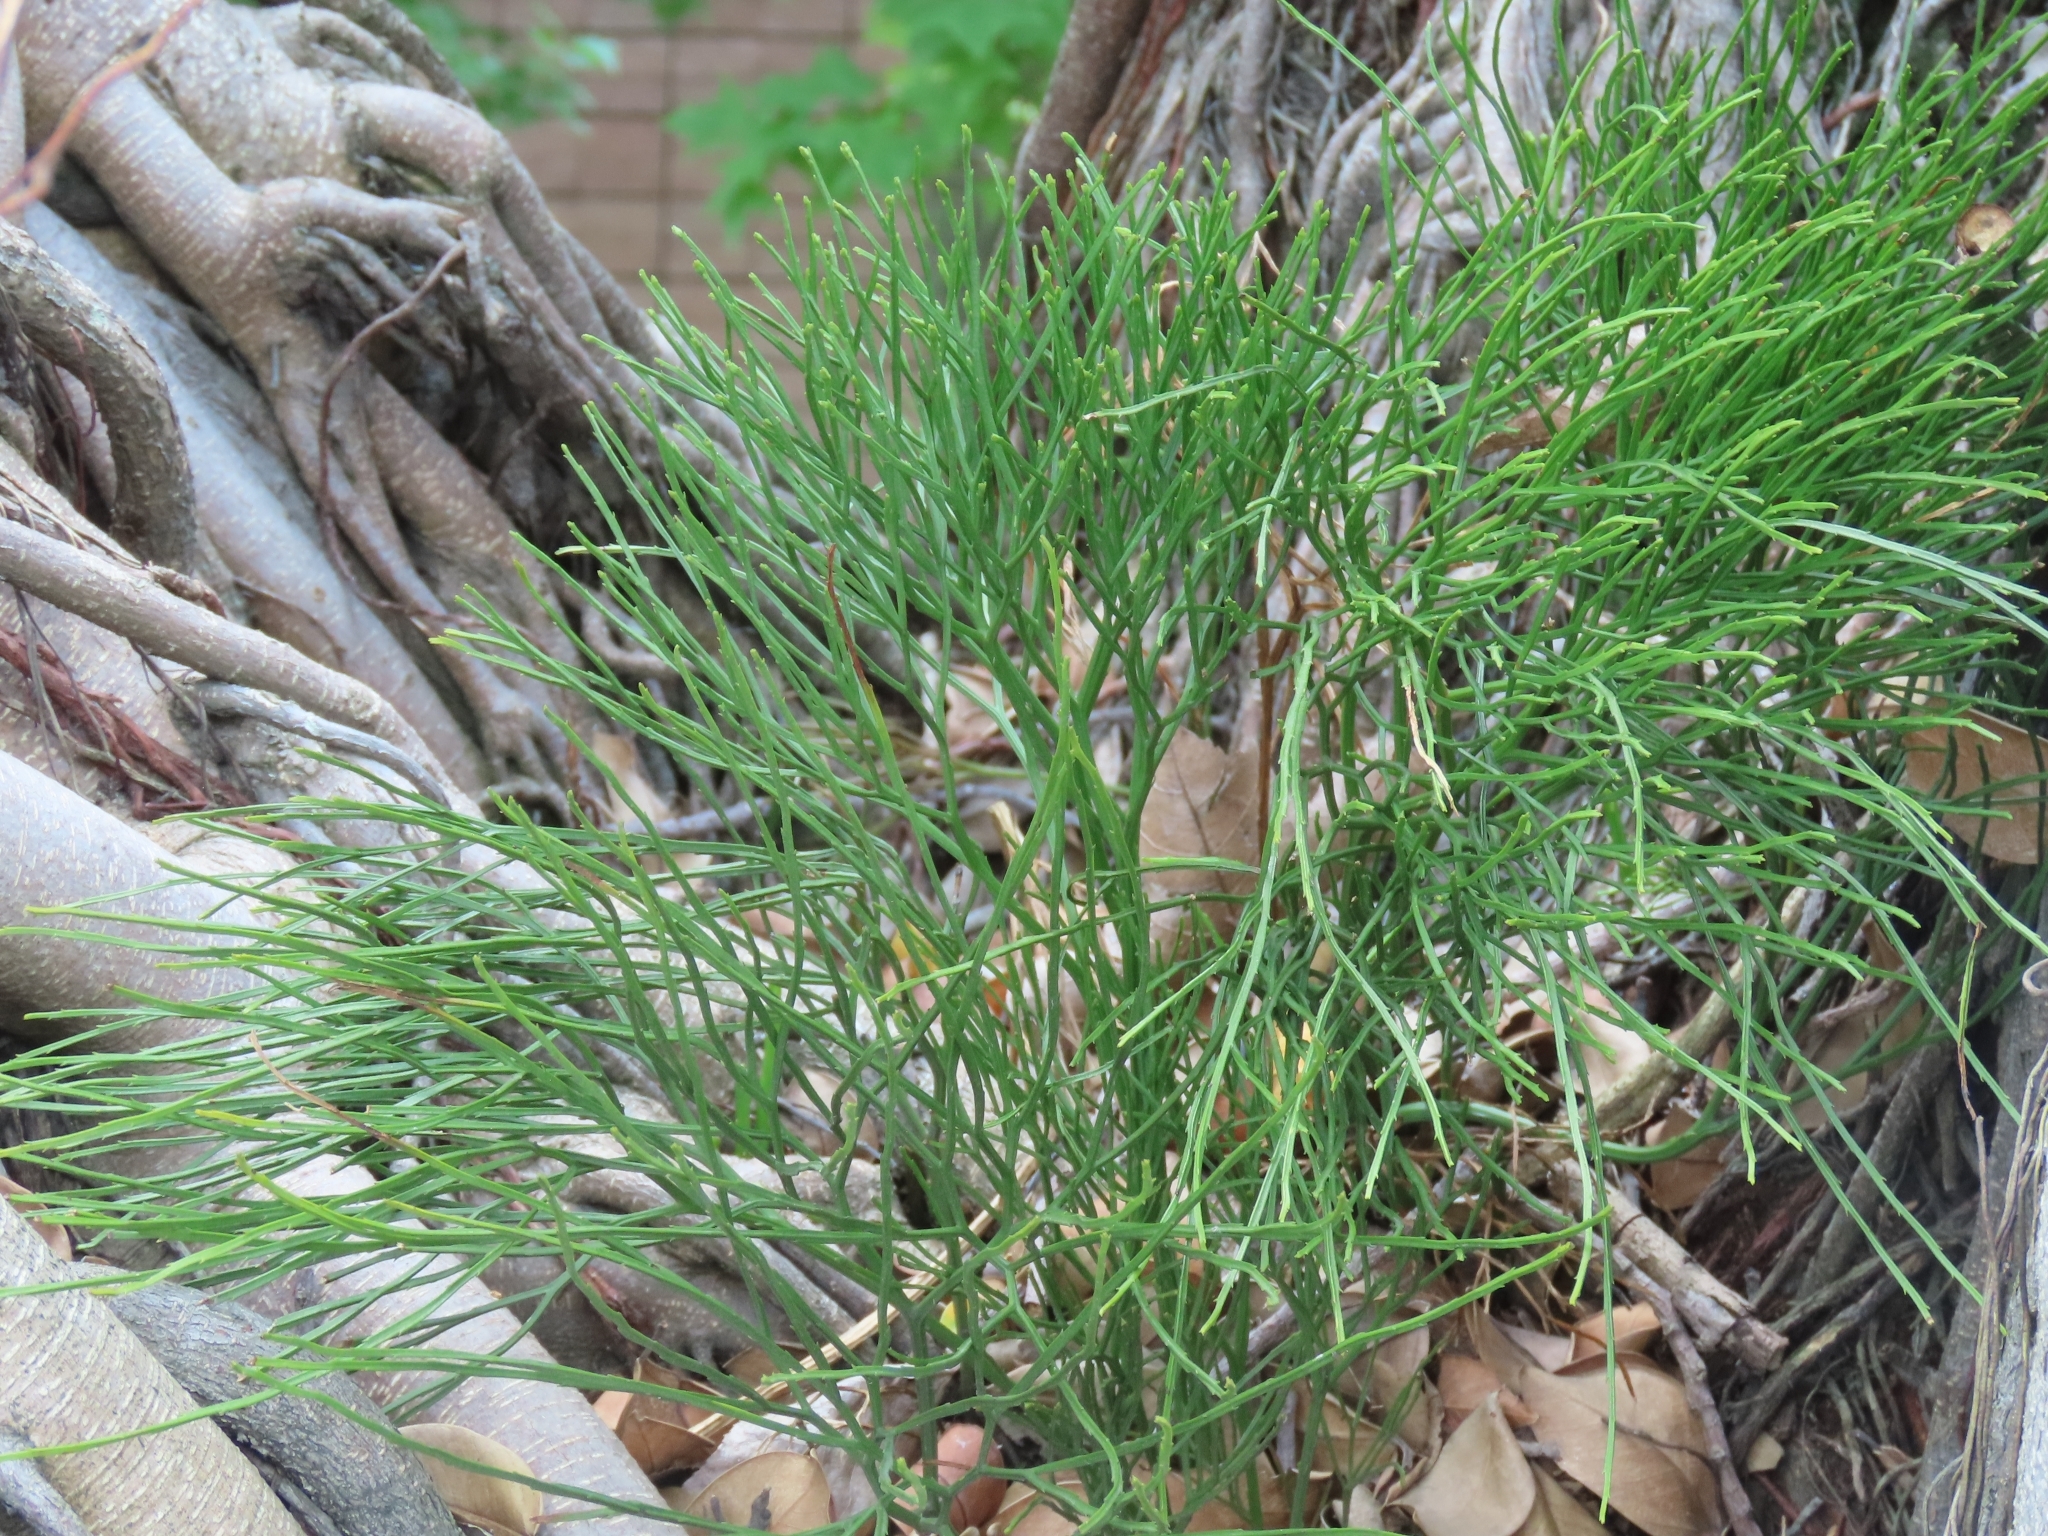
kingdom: Plantae
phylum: Tracheophyta
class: Polypodiopsida
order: Psilotales
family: Psilotaceae
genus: Psilotum
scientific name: Psilotum nudum
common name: Skeleton fork fern
